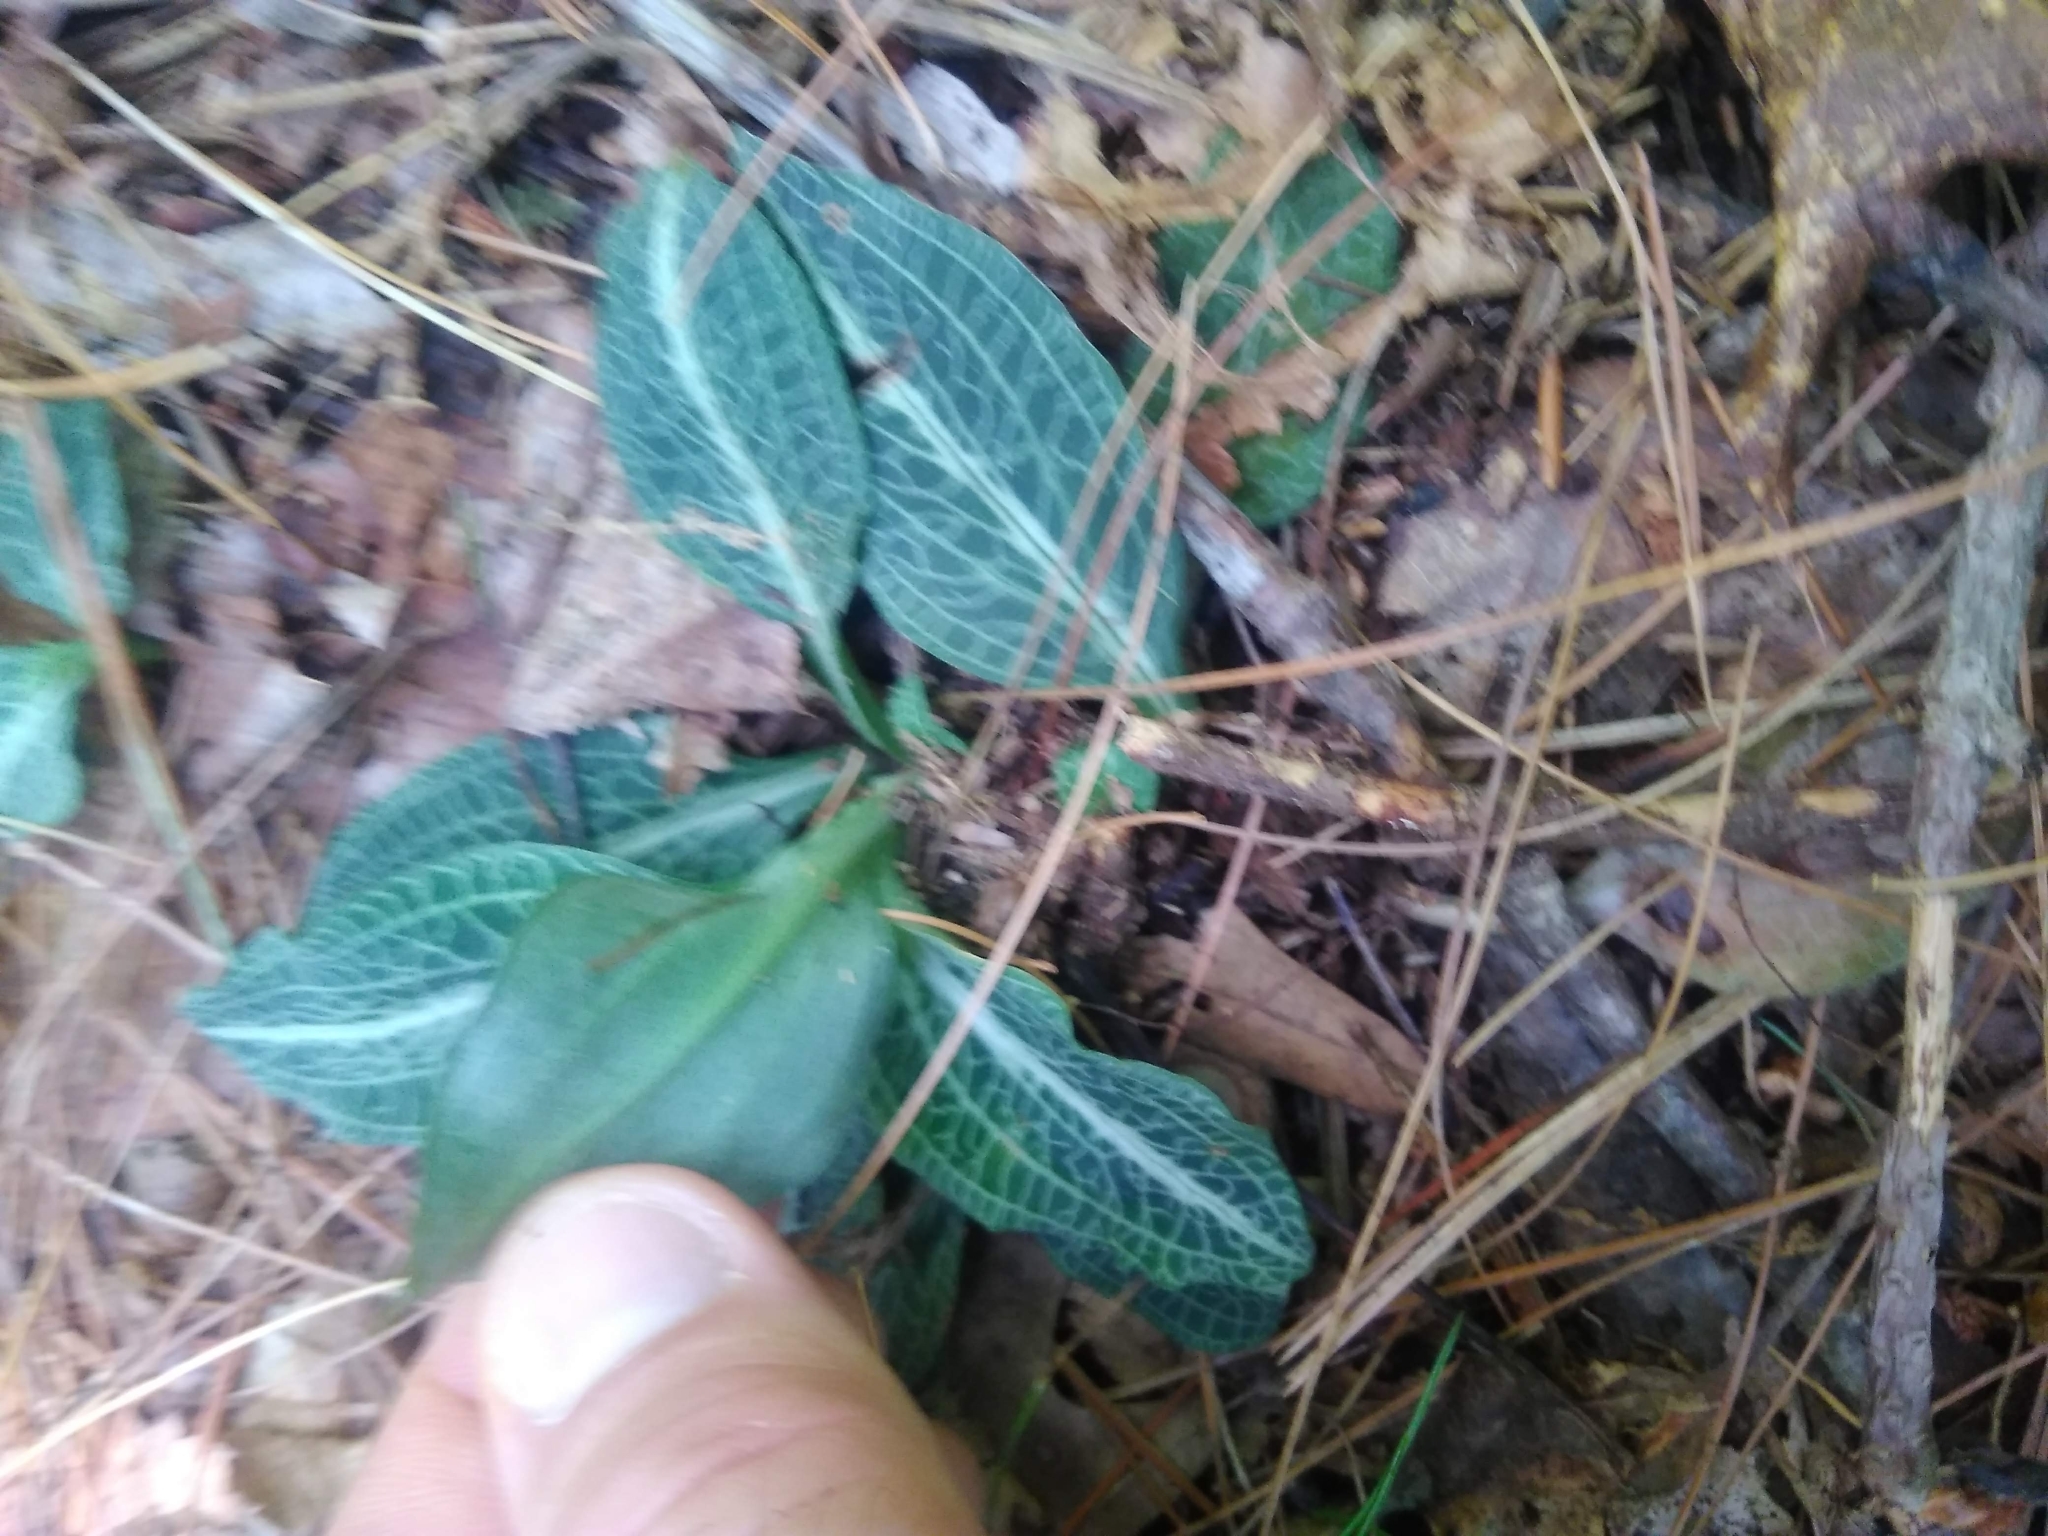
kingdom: Plantae
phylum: Tracheophyta
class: Liliopsida
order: Asparagales
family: Orchidaceae
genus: Goodyera
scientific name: Goodyera pubescens
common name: Downy rattlesnake-plantain
